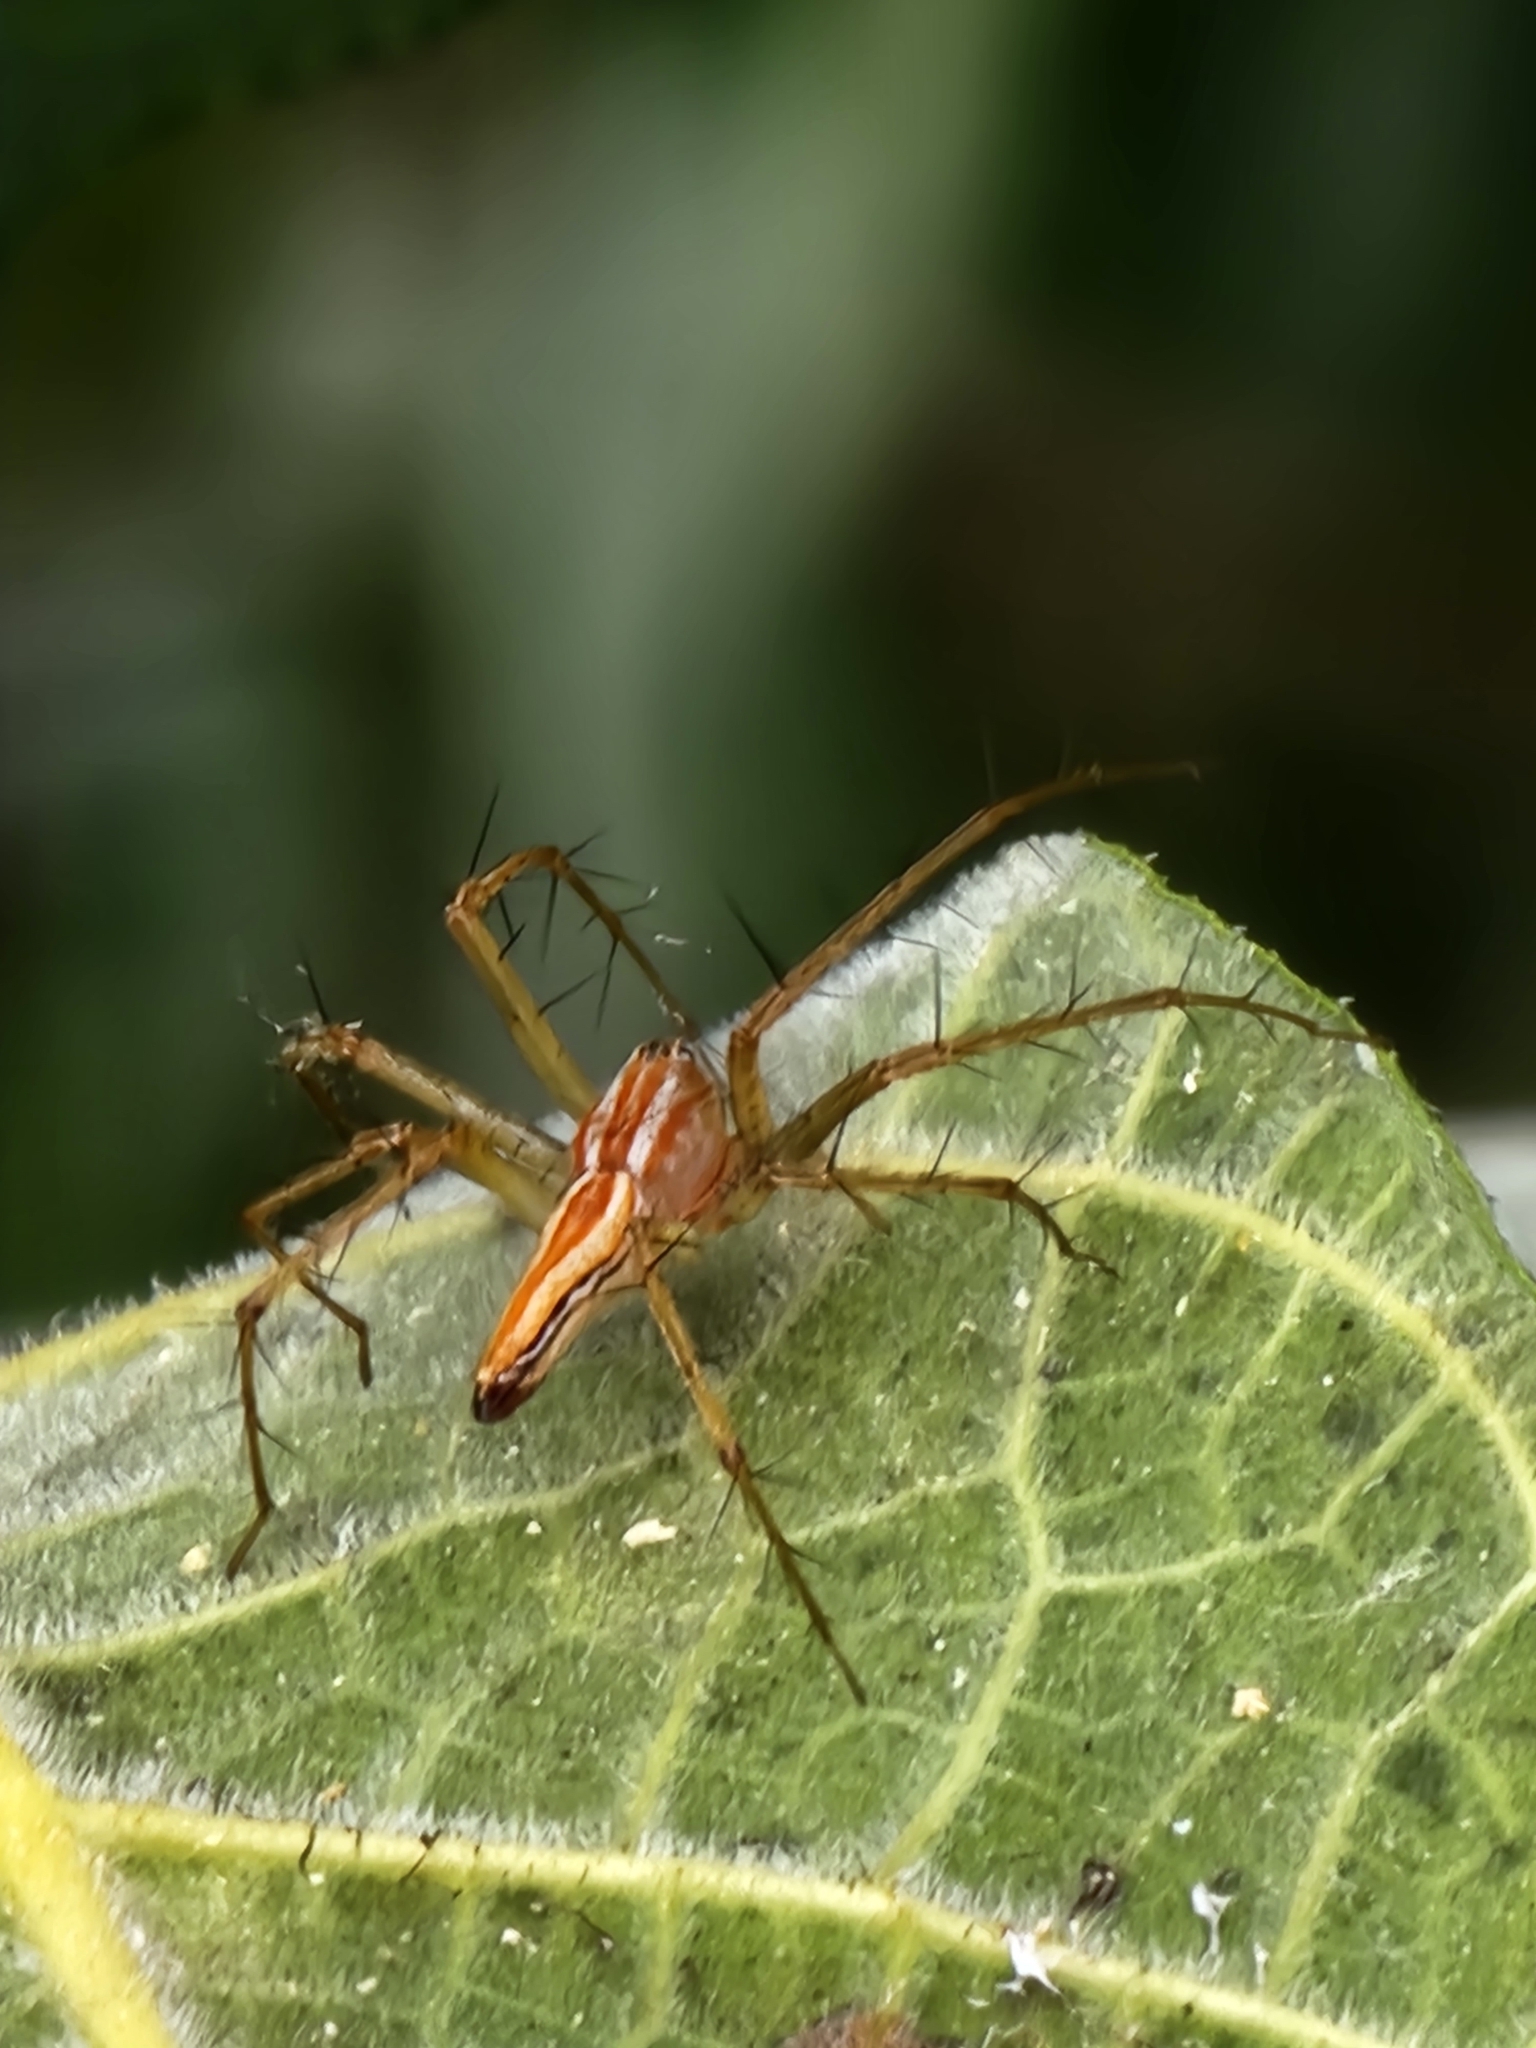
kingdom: Animalia
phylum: Arthropoda
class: Arachnida
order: Araneae
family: Oxyopidae
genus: Oxyopes
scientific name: Oxyopes macilentus
